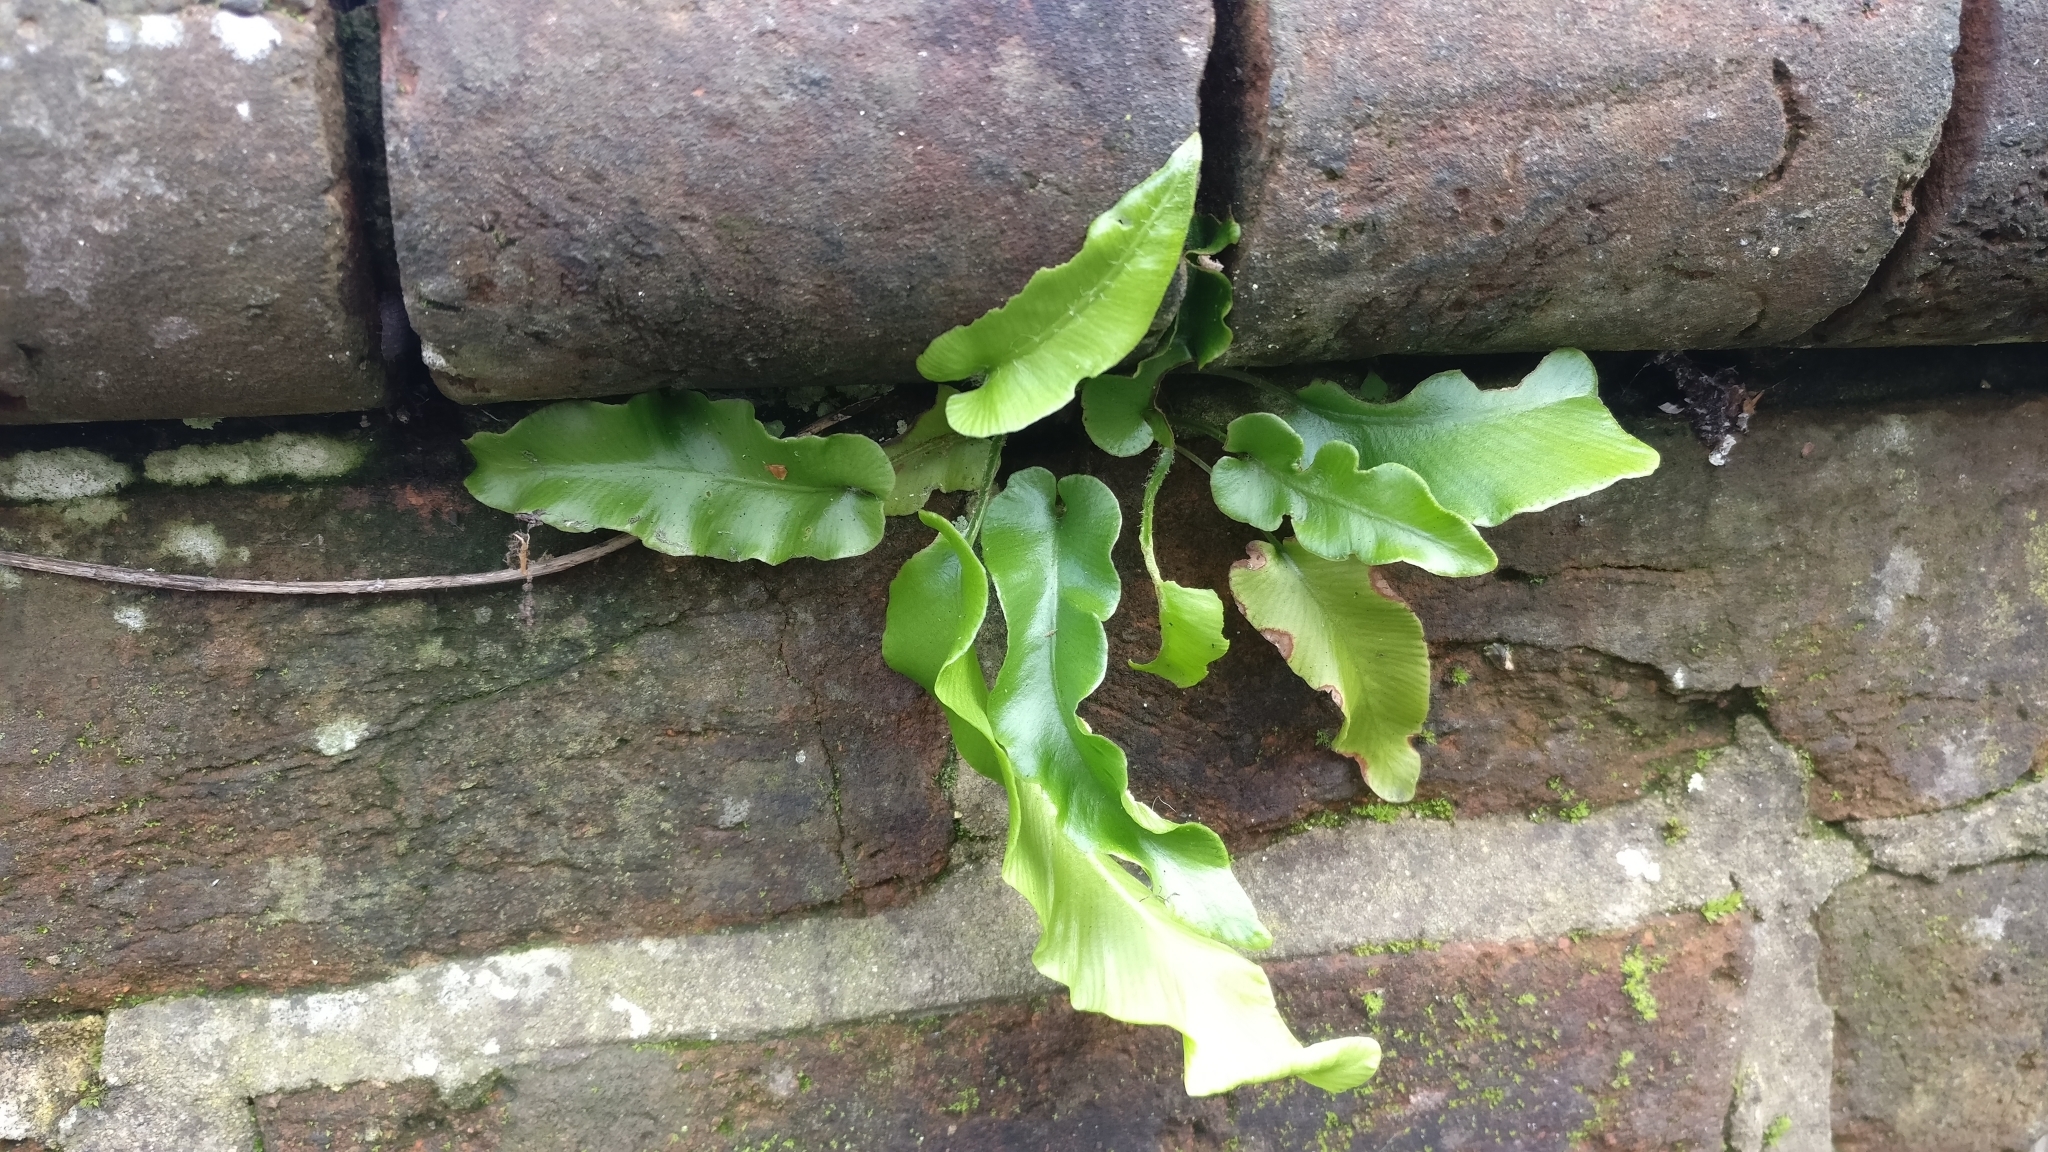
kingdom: Plantae
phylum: Tracheophyta
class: Polypodiopsida
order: Polypodiales
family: Aspleniaceae
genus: Asplenium
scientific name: Asplenium scolopendrium
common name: Hart's-tongue fern
